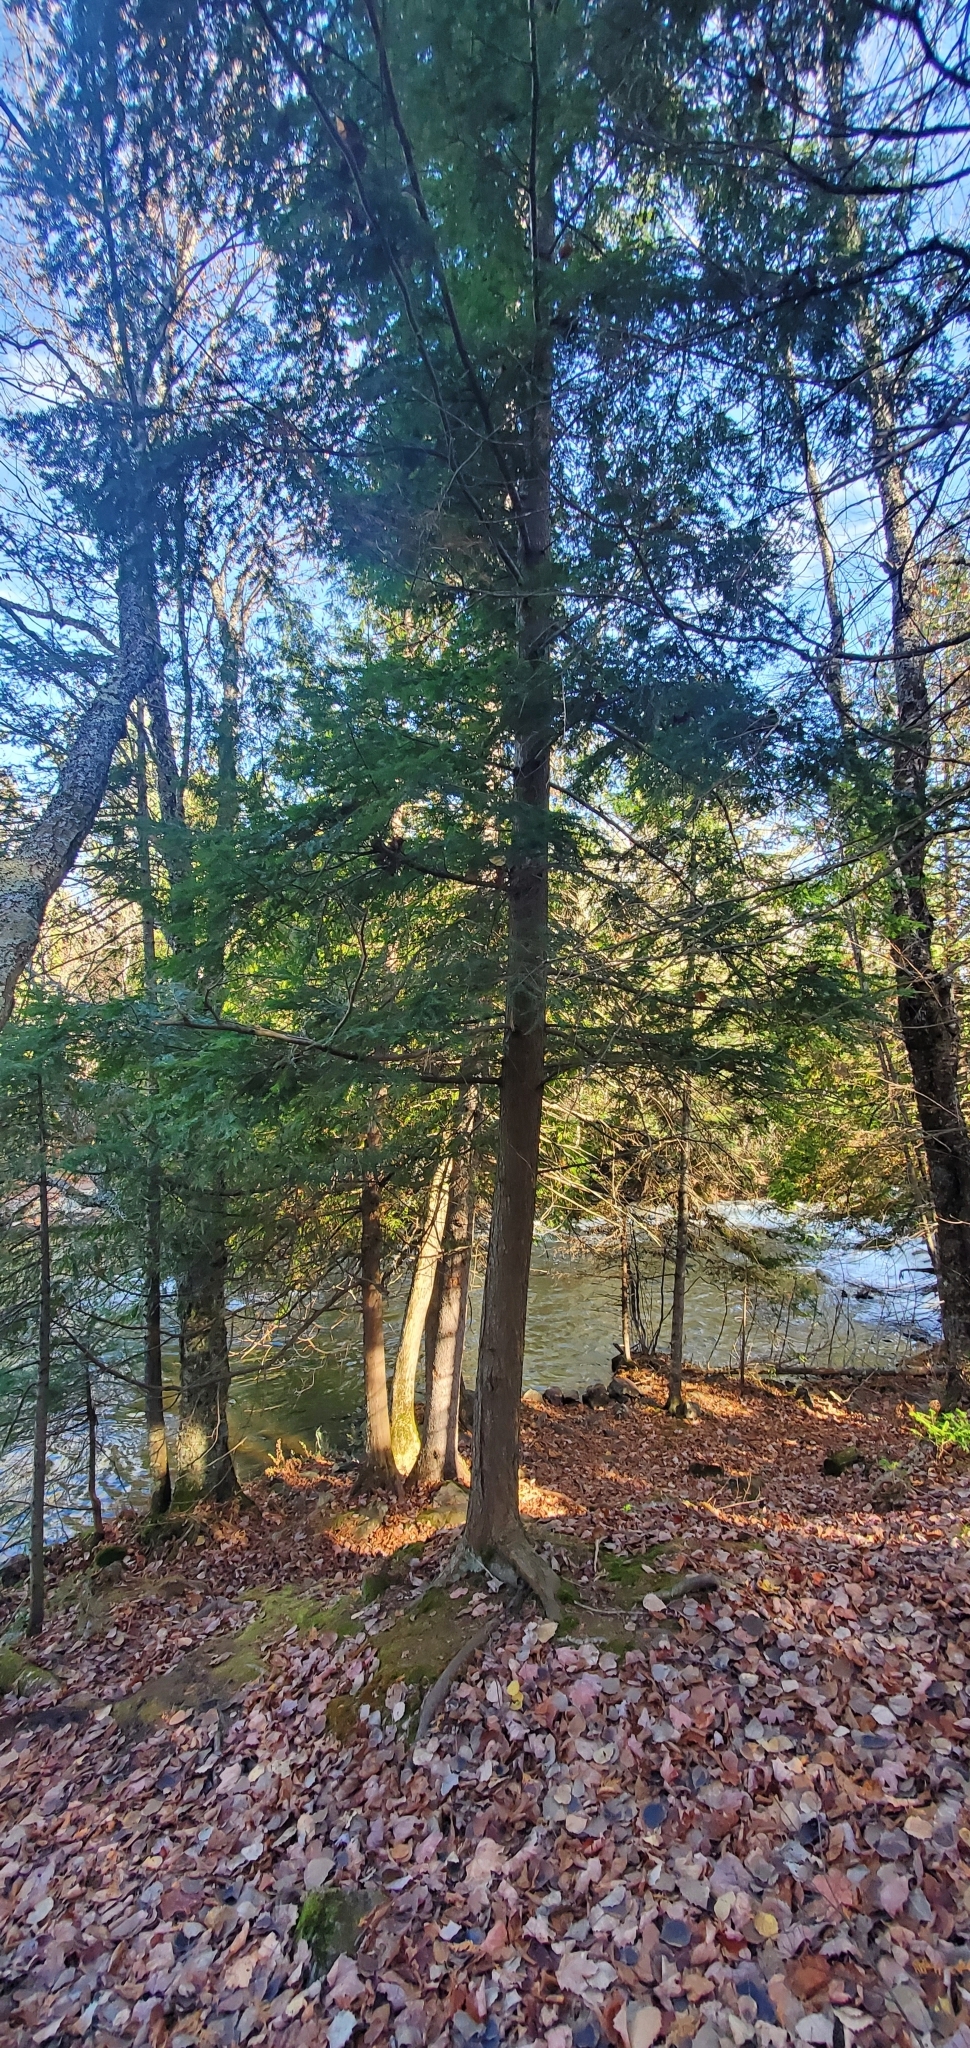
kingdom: Plantae
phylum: Tracheophyta
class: Pinopsida
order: Pinales
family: Pinaceae
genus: Tsuga
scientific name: Tsuga canadensis
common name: Eastern hemlock
